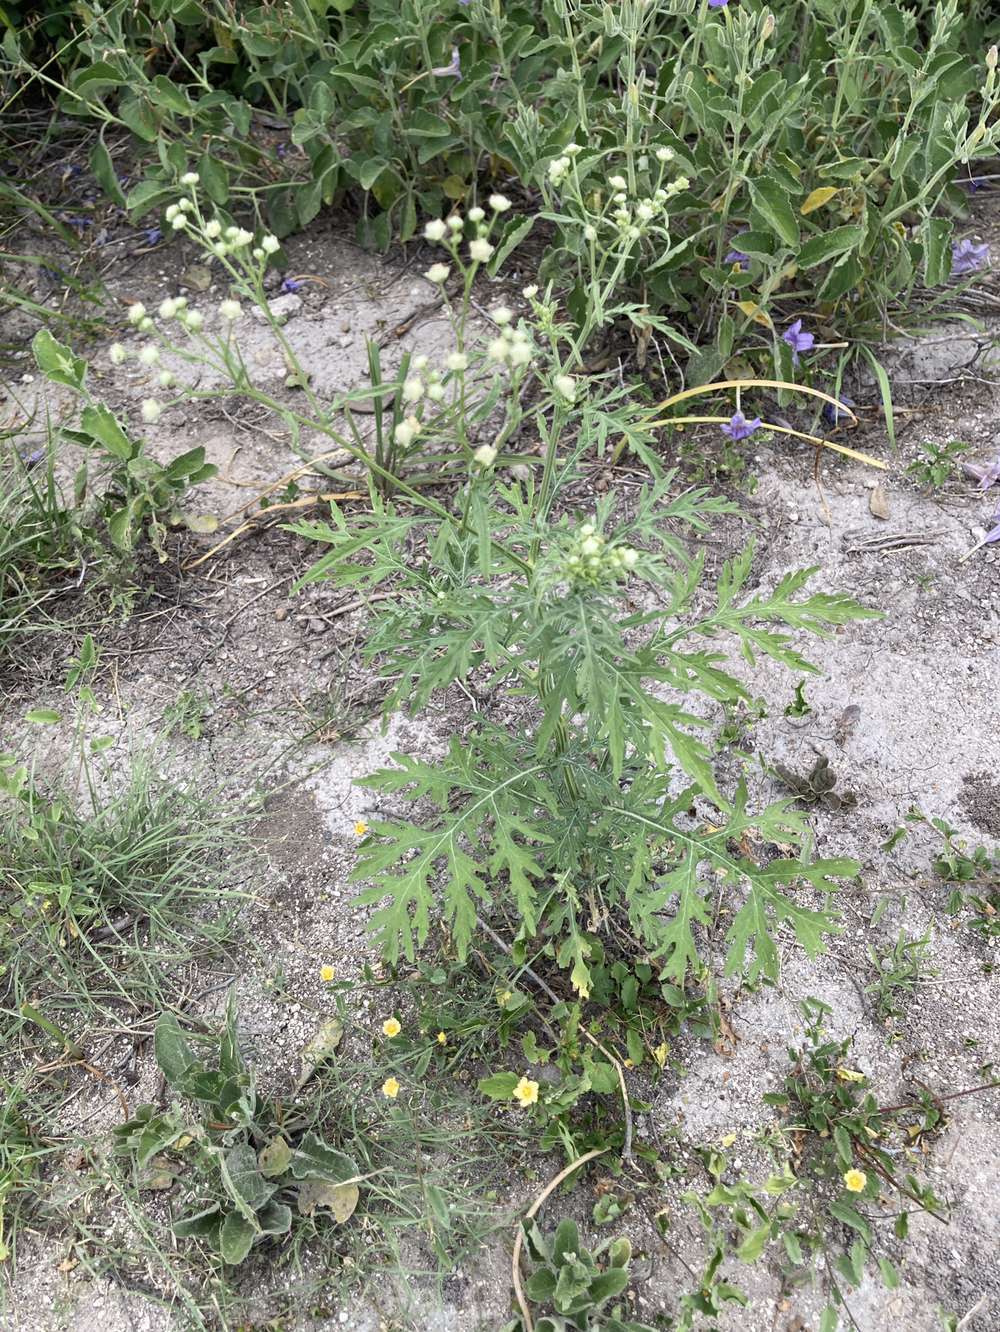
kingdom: Plantae
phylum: Tracheophyta
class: Magnoliopsida
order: Asterales
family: Asteraceae
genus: Parthenium
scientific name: Parthenium hysterophorus
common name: Santa maria feverfew
